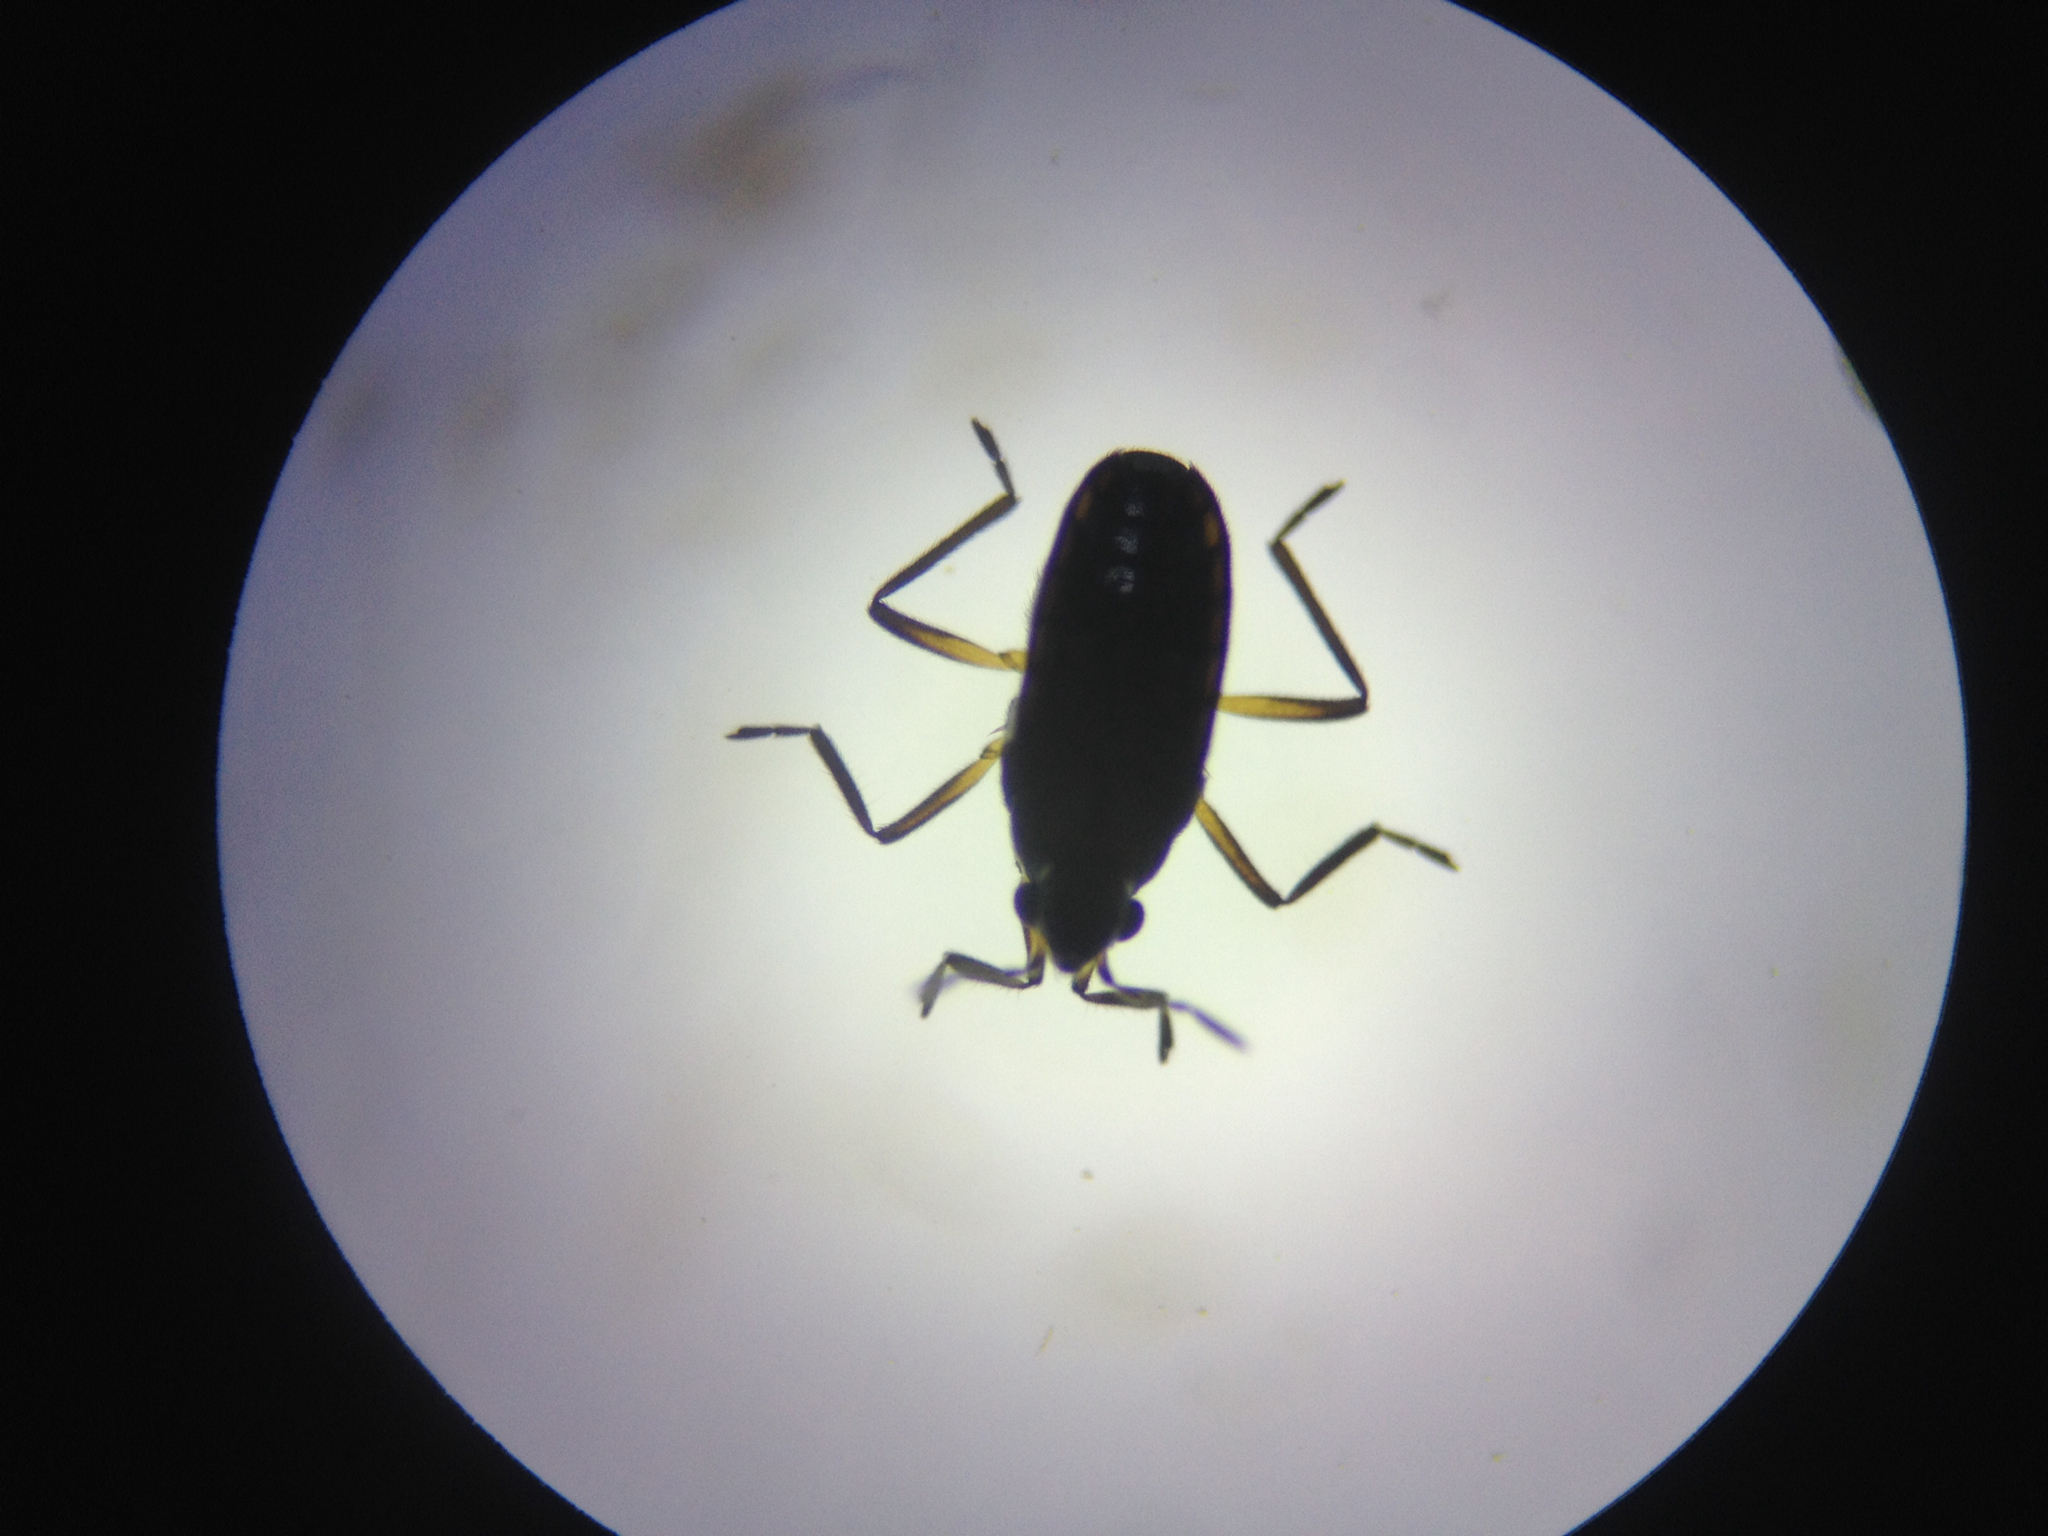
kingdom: Animalia
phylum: Arthropoda
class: Insecta
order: Hemiptera
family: Veliidae
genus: Microvelia
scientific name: Microvelia macgregori
